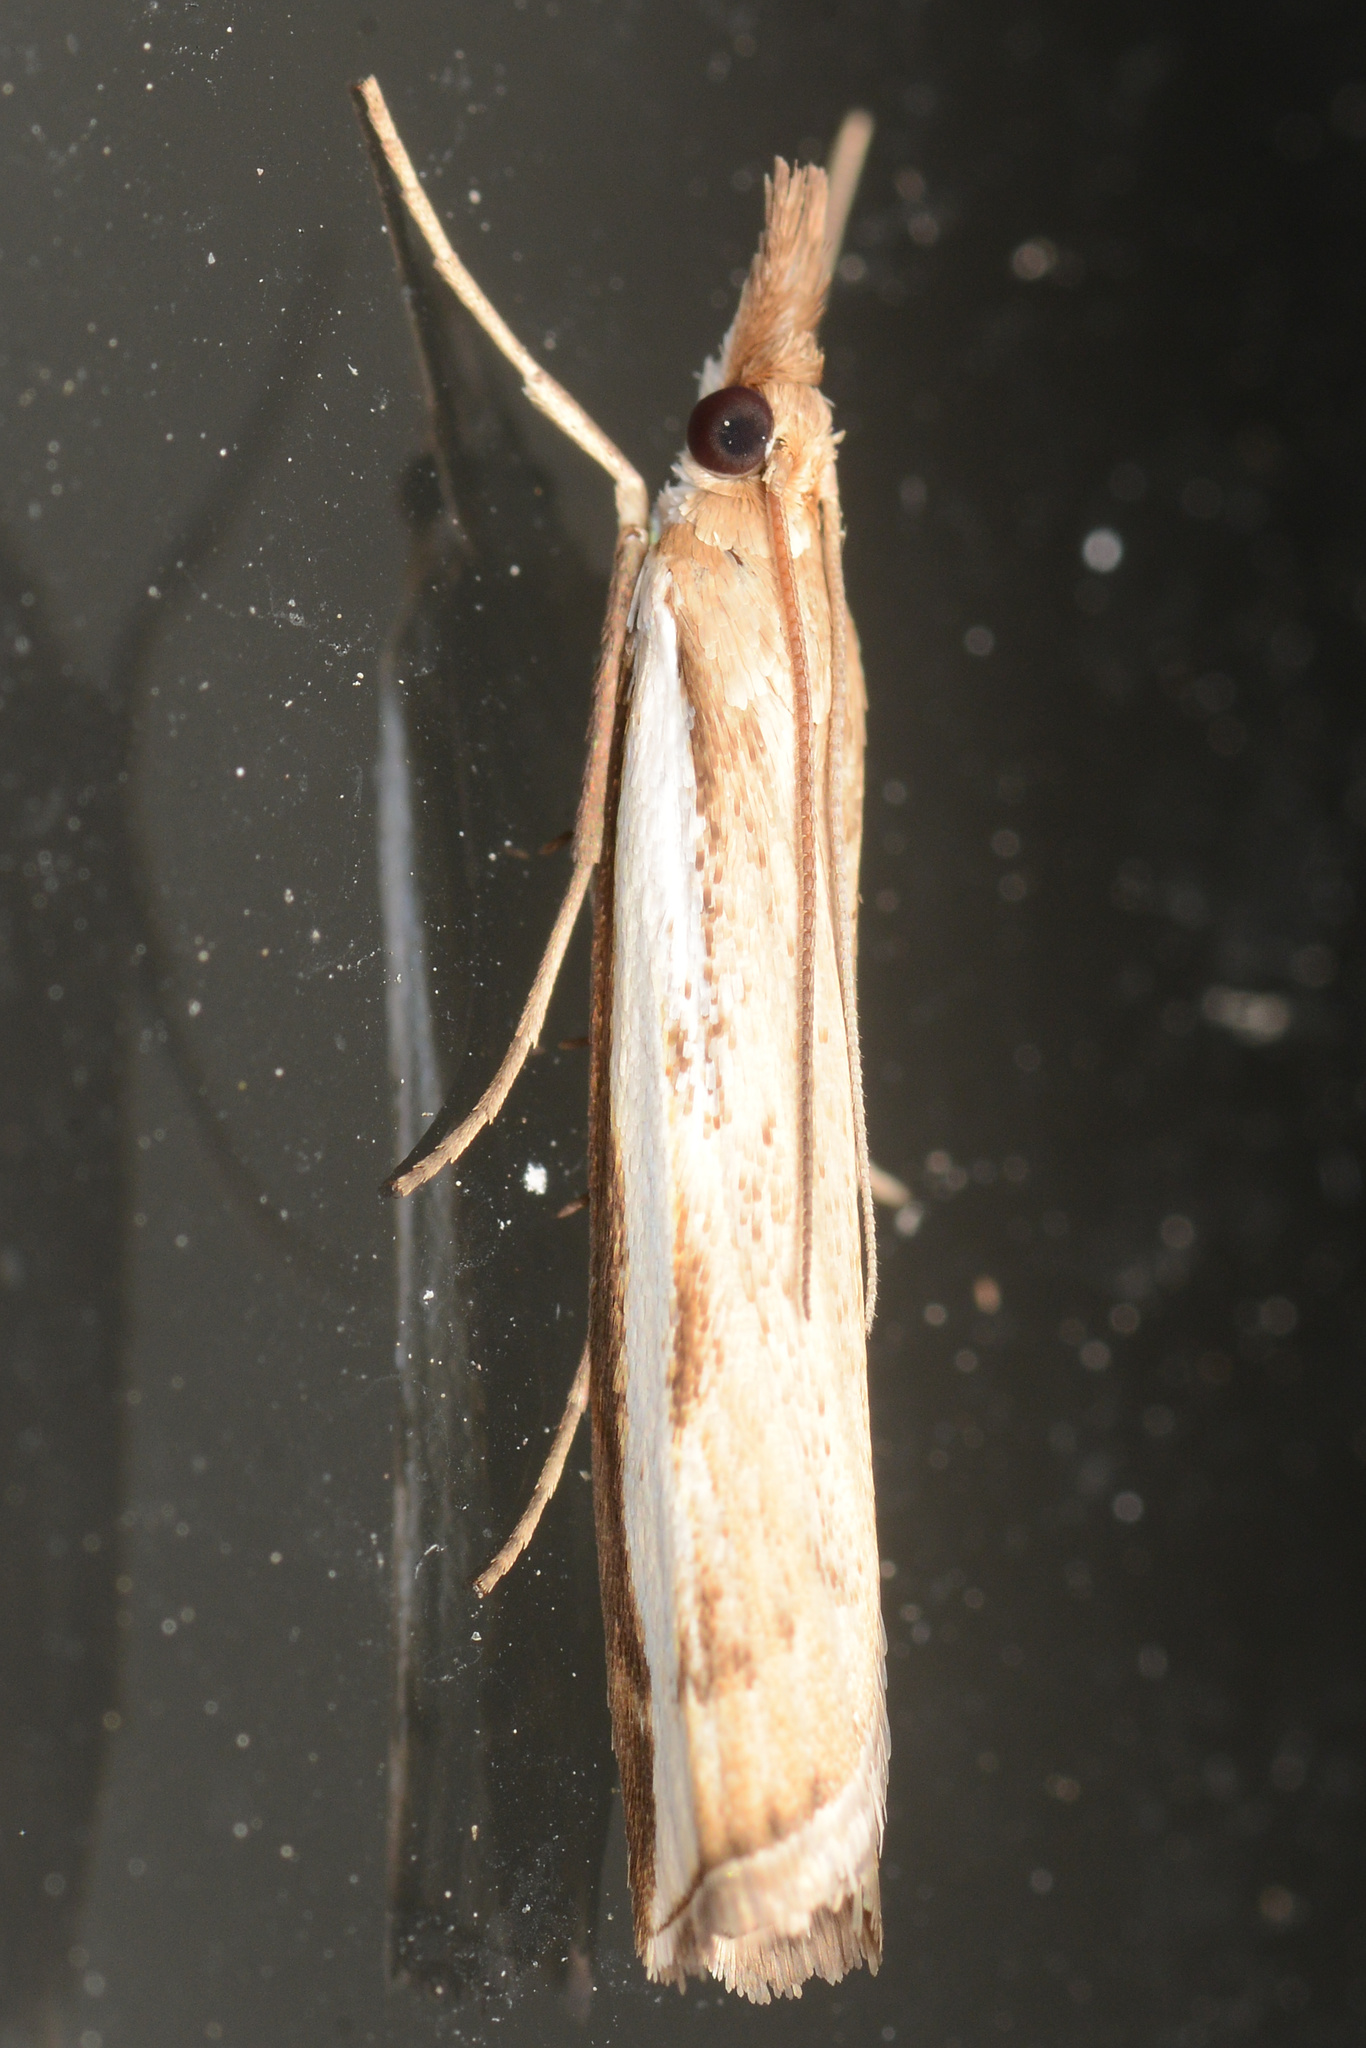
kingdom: Animalia
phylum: Arthropoda
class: Insecta
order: Lepidoptera
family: Crambidae
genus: Orocrambus
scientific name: Orocrambus flexuosellus
